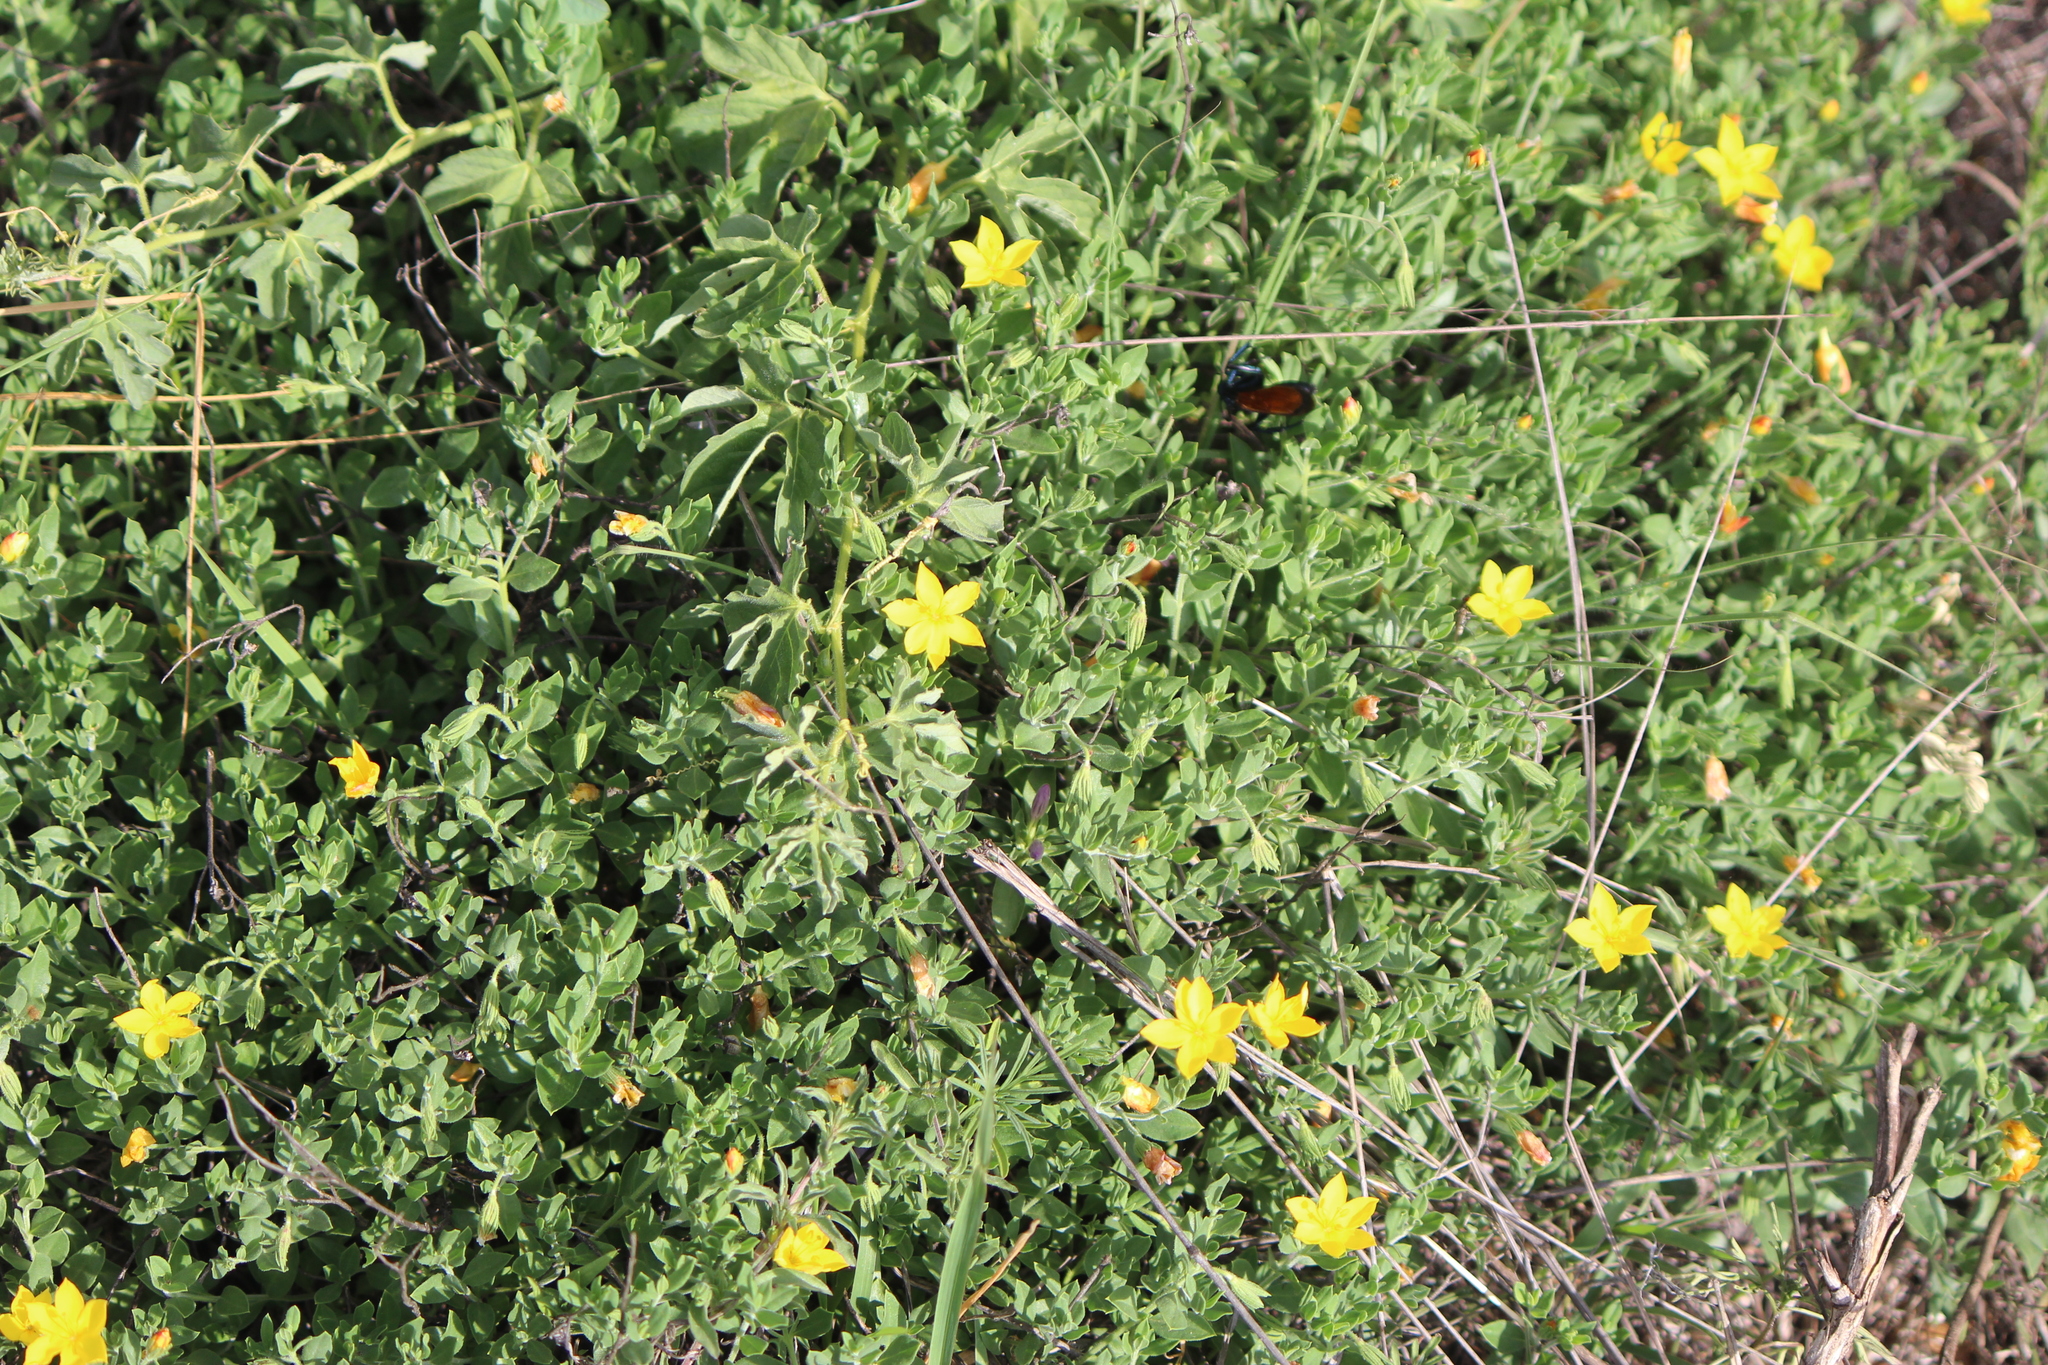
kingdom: Plantae
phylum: Tracheophyta
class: Magnoliopsida
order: Lamiales
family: Oleaceae
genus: Menodora
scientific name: Menodora scabra
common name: Rough menodora
